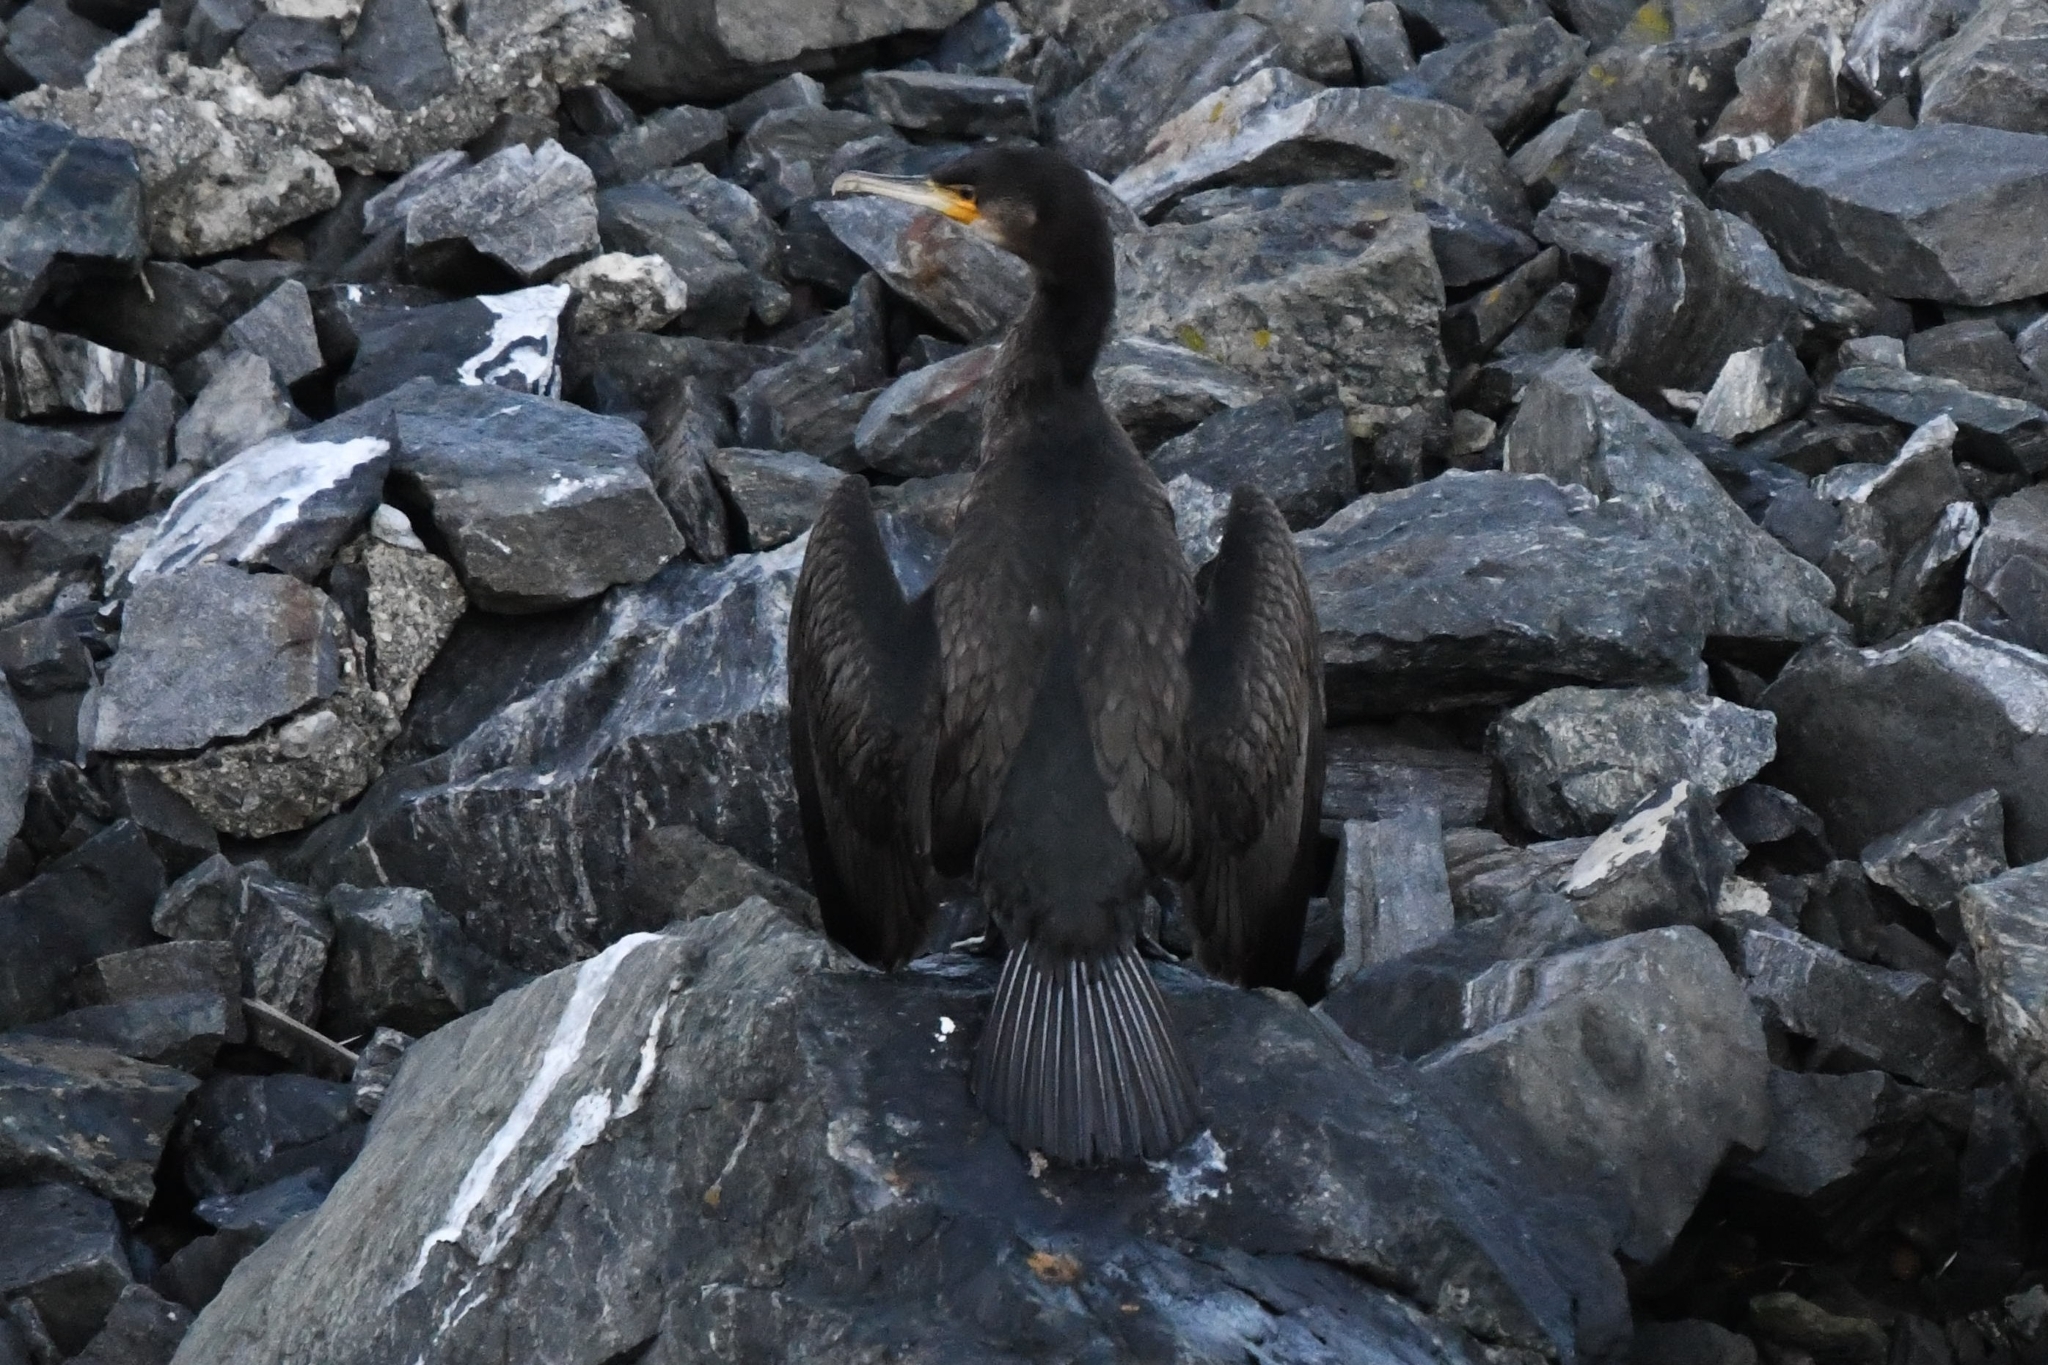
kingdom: Animalia
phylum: Chordata
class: Aves
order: Suliformes
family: Phalacrocoracidae
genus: Phalacrocorax
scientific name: Phalacrocorax carbo
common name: Great cormorant
